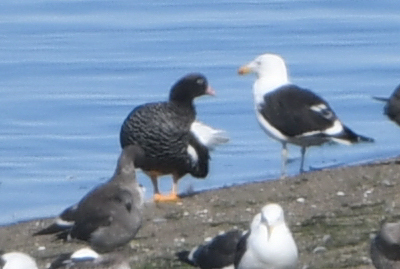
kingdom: Animalia
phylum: Chordata
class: Aves
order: Anseriformes
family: Anatidae
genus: Chloephaga
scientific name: Chloephaga hybrida
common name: Kelp goose
